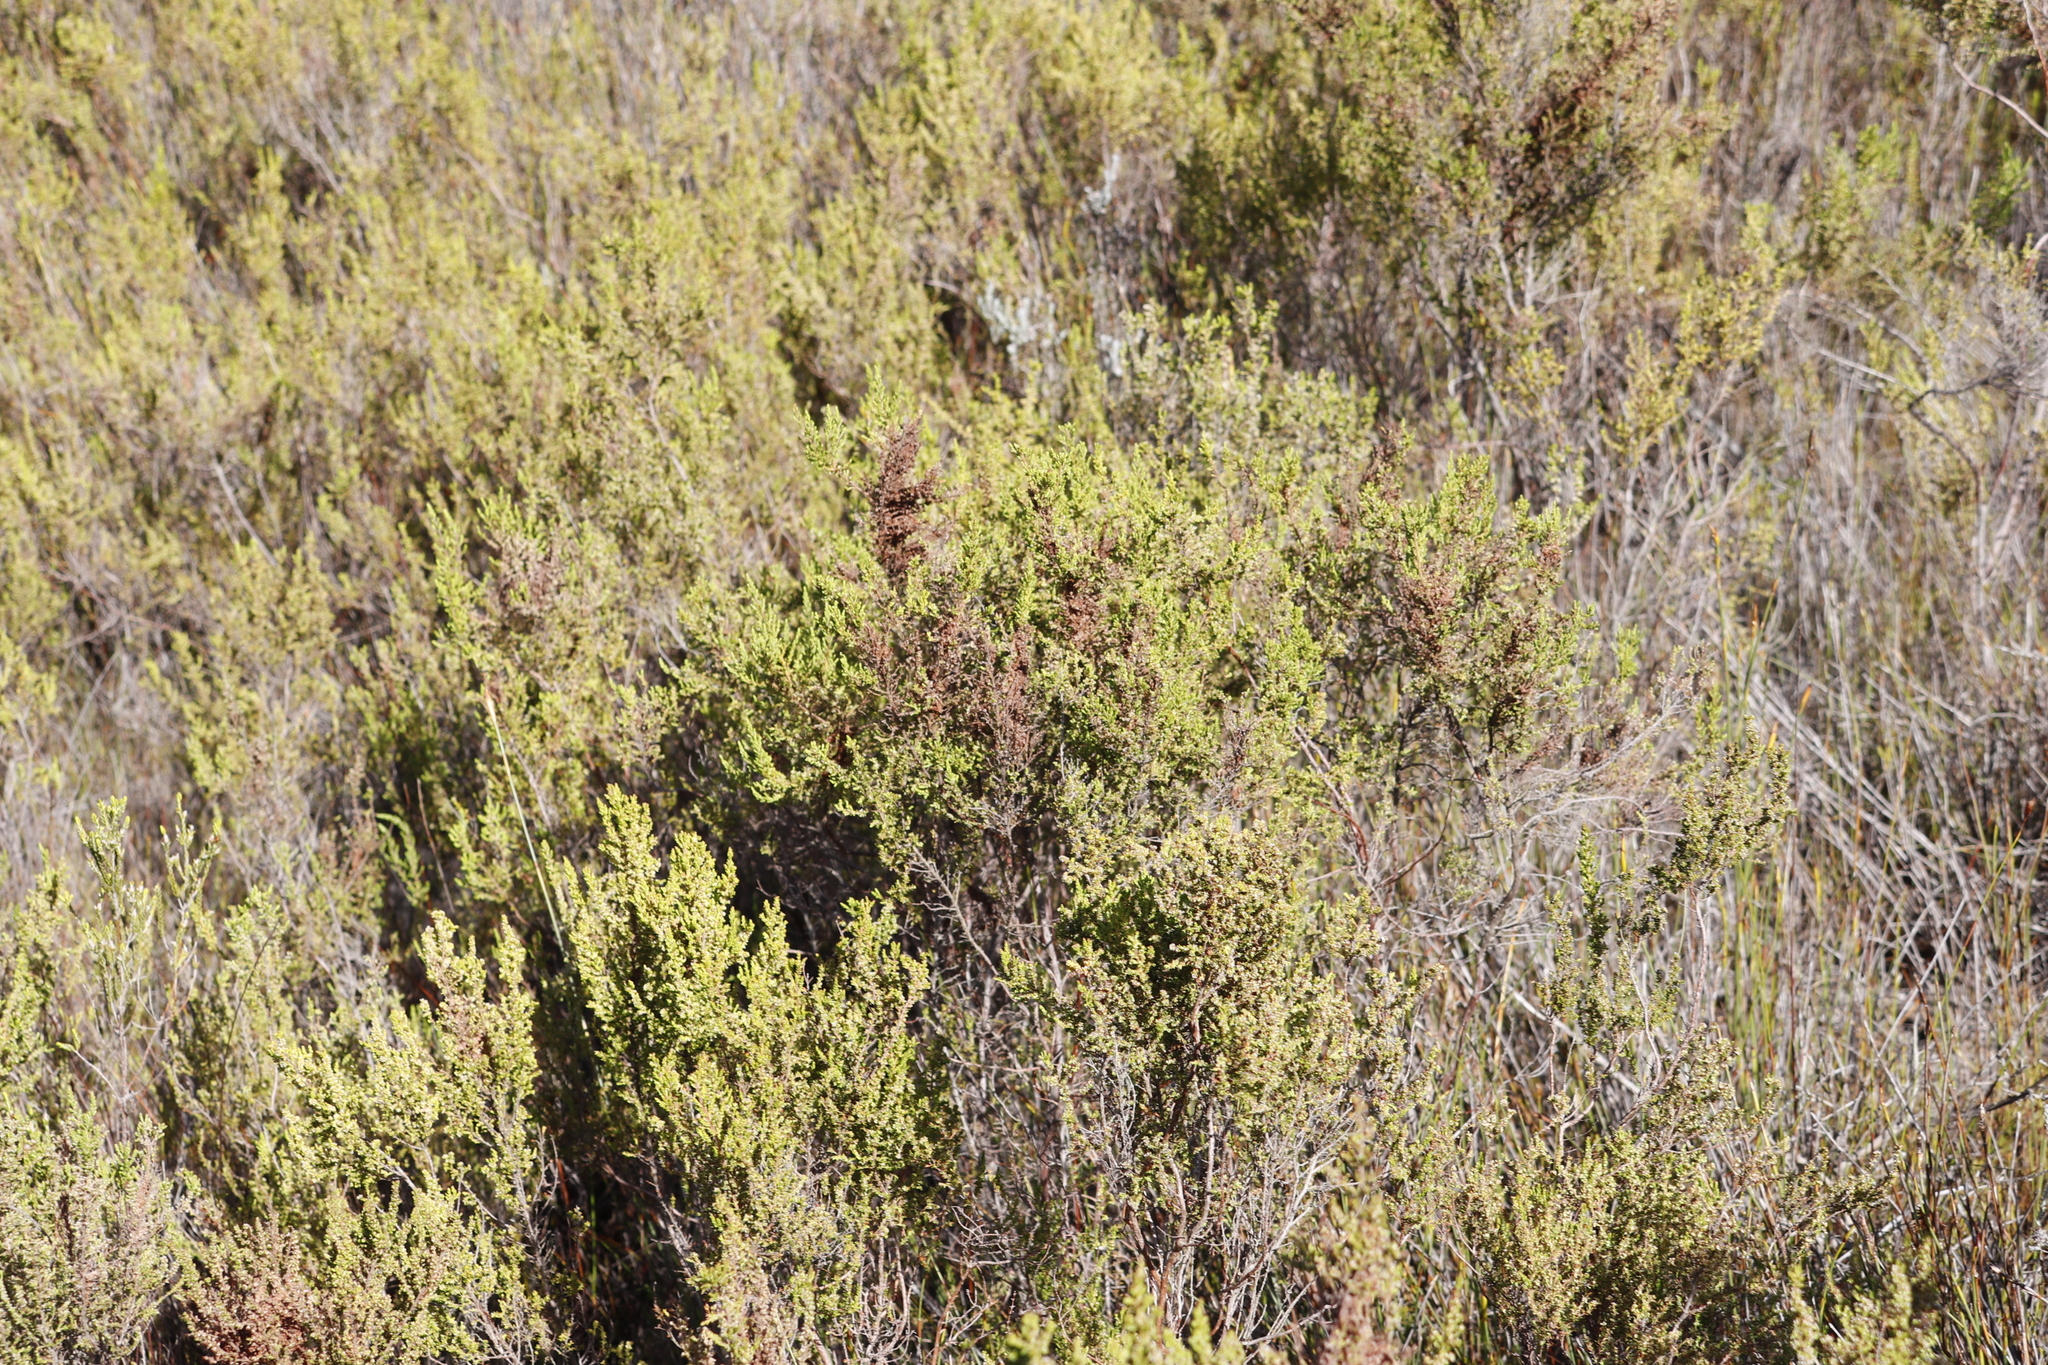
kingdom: Plantae
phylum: Tracheophyta
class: Magnoliopsida
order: Ericales
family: Ericaceae
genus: Erica
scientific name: Erica muscosa
